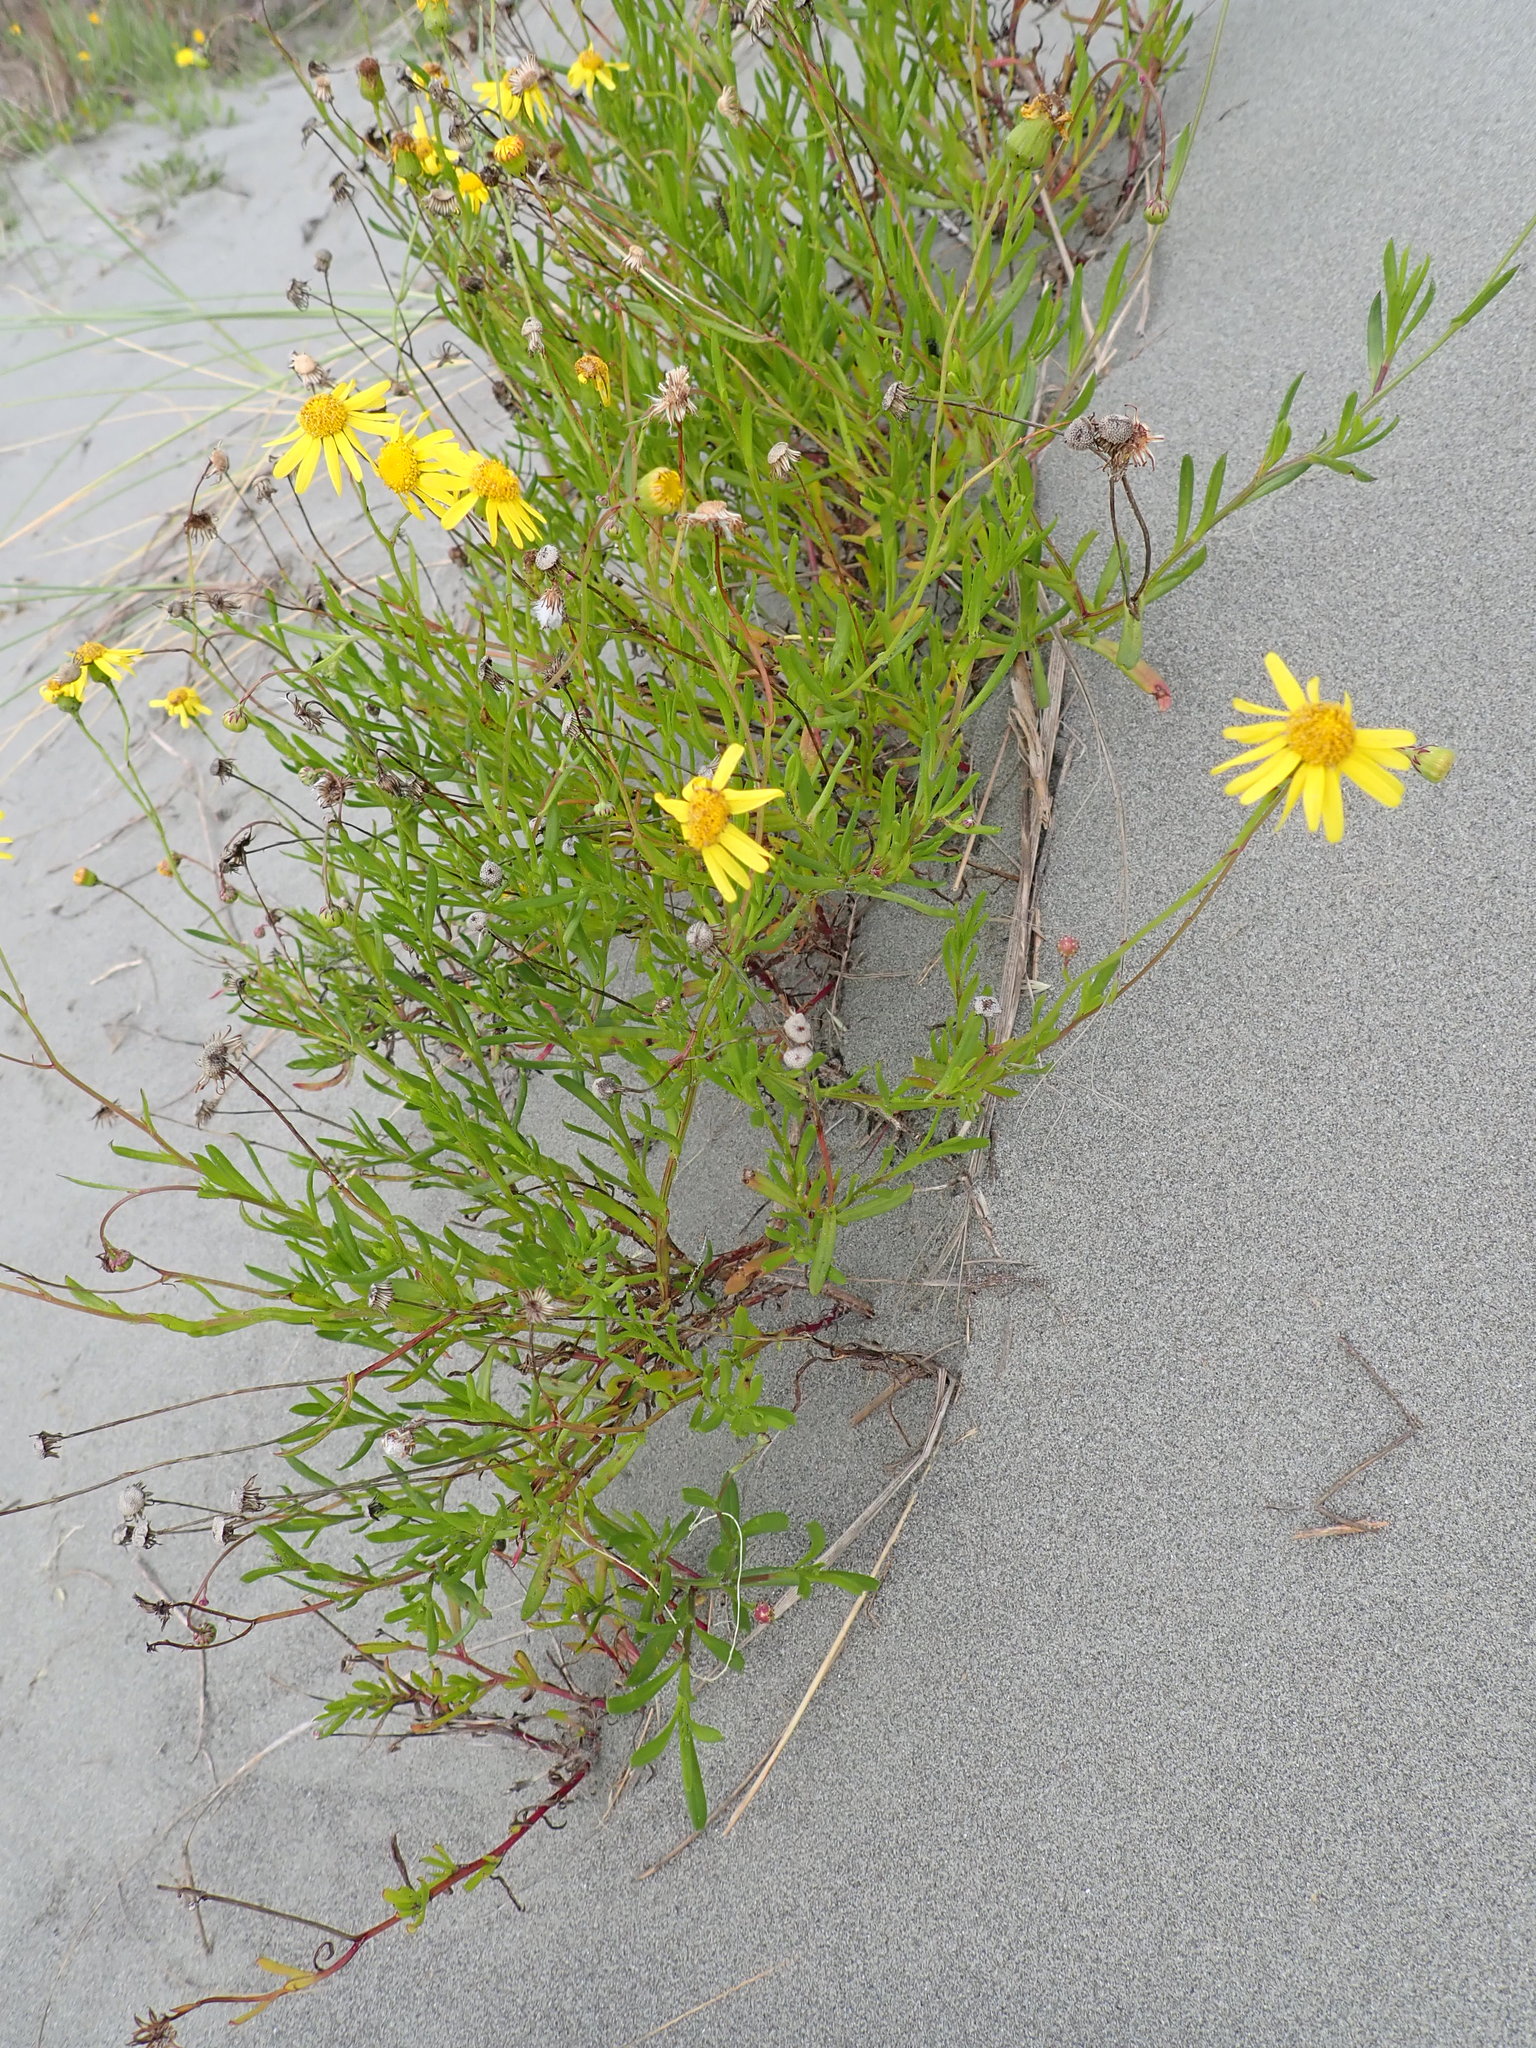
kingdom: Plantae
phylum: Tracheophyta
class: Magnoliopsida
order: Asterales
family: Asteraceae
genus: Senecio
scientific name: Senecio skirrhodon
